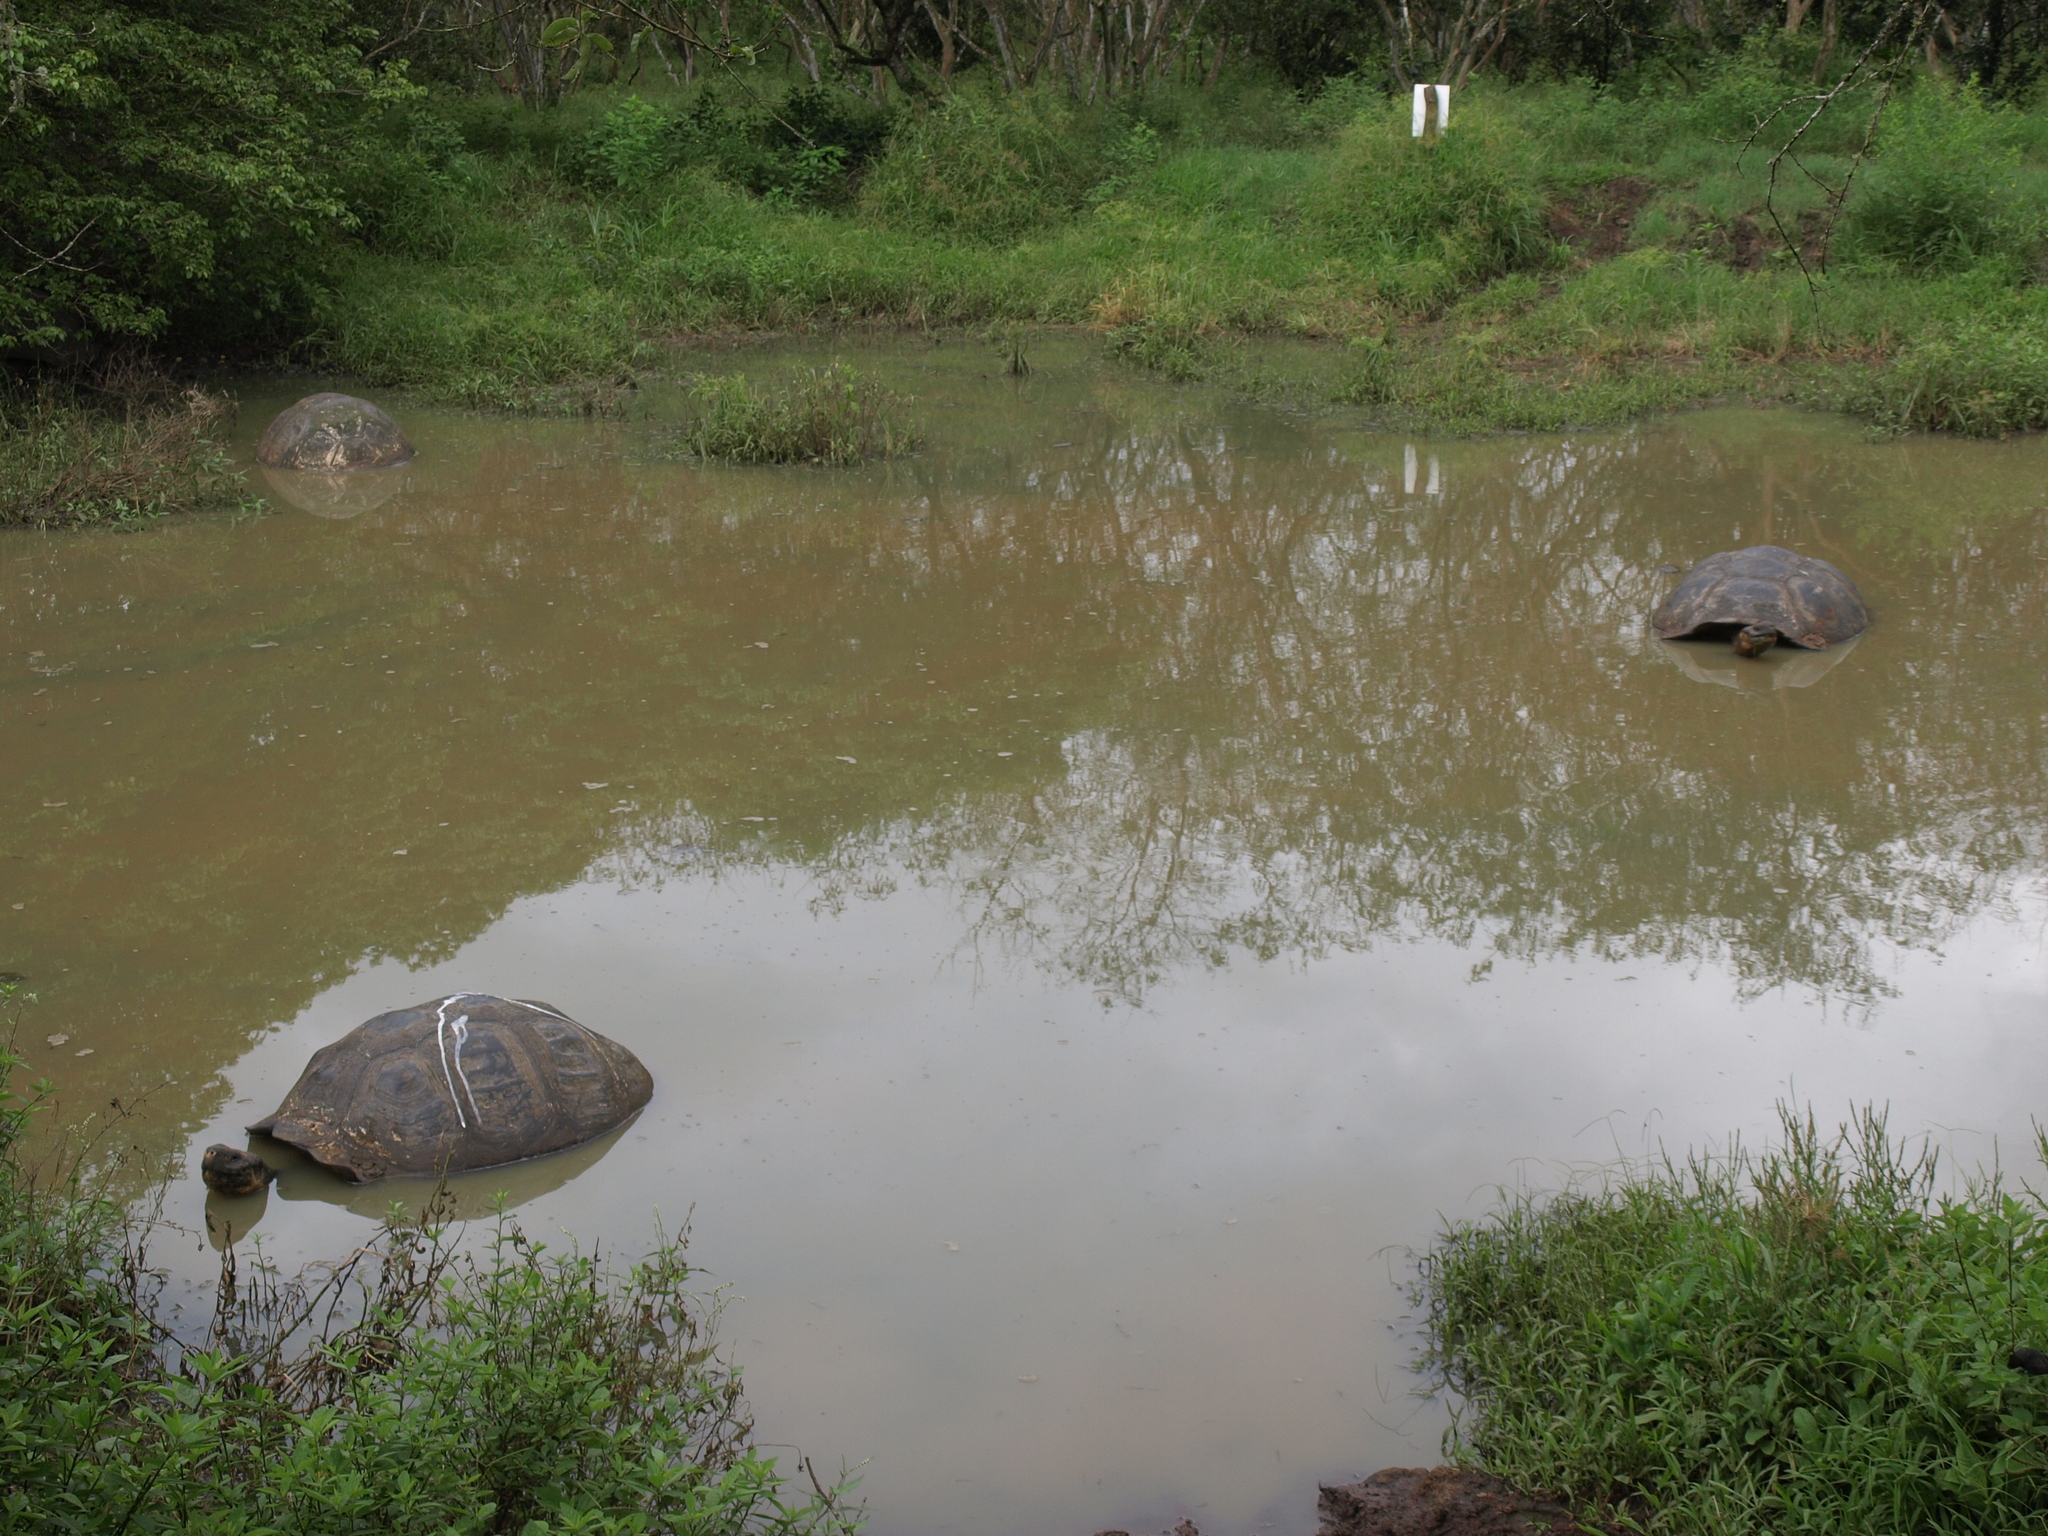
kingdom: Animalia
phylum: Chordata
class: Testudines
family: Testudinidae
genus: Chelonoidis
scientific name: Chelonoidis porteri
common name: Indefatigable island giant tortoise
